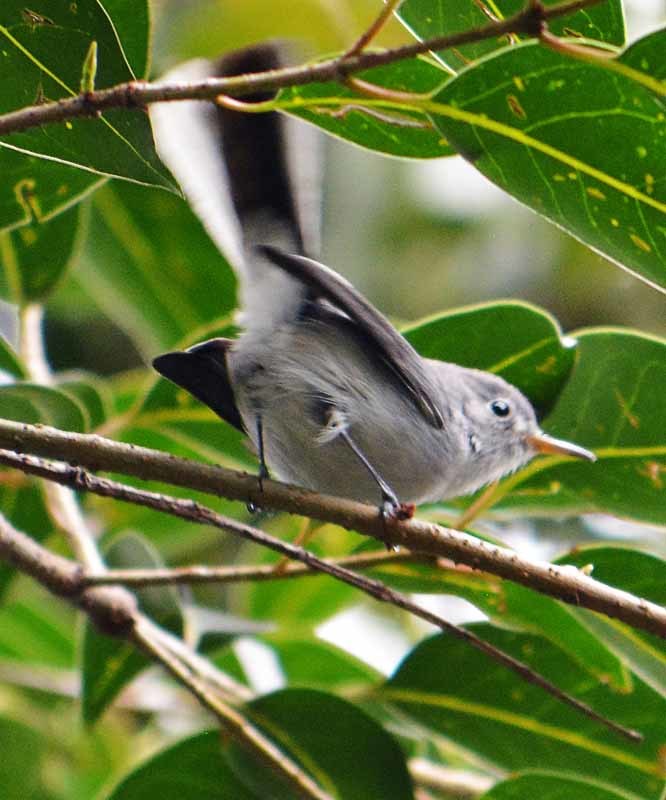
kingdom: Animalia
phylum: Chordata
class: Aves
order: Passeriformes
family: Polioptilidae
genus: Polioptila
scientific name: Polioptila caerulea
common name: Blue-gray gnatcatcher
